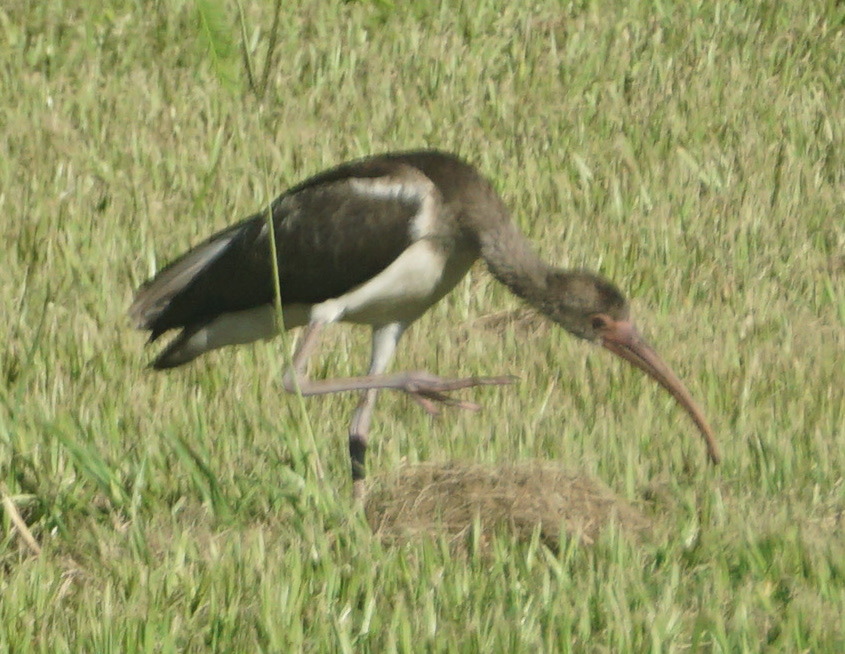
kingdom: Animalia
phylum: Chordata
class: Aves
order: Pelecaniformes
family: Threskiornithidae
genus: Eudocimus
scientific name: Eudocimus albus
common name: White ibis
